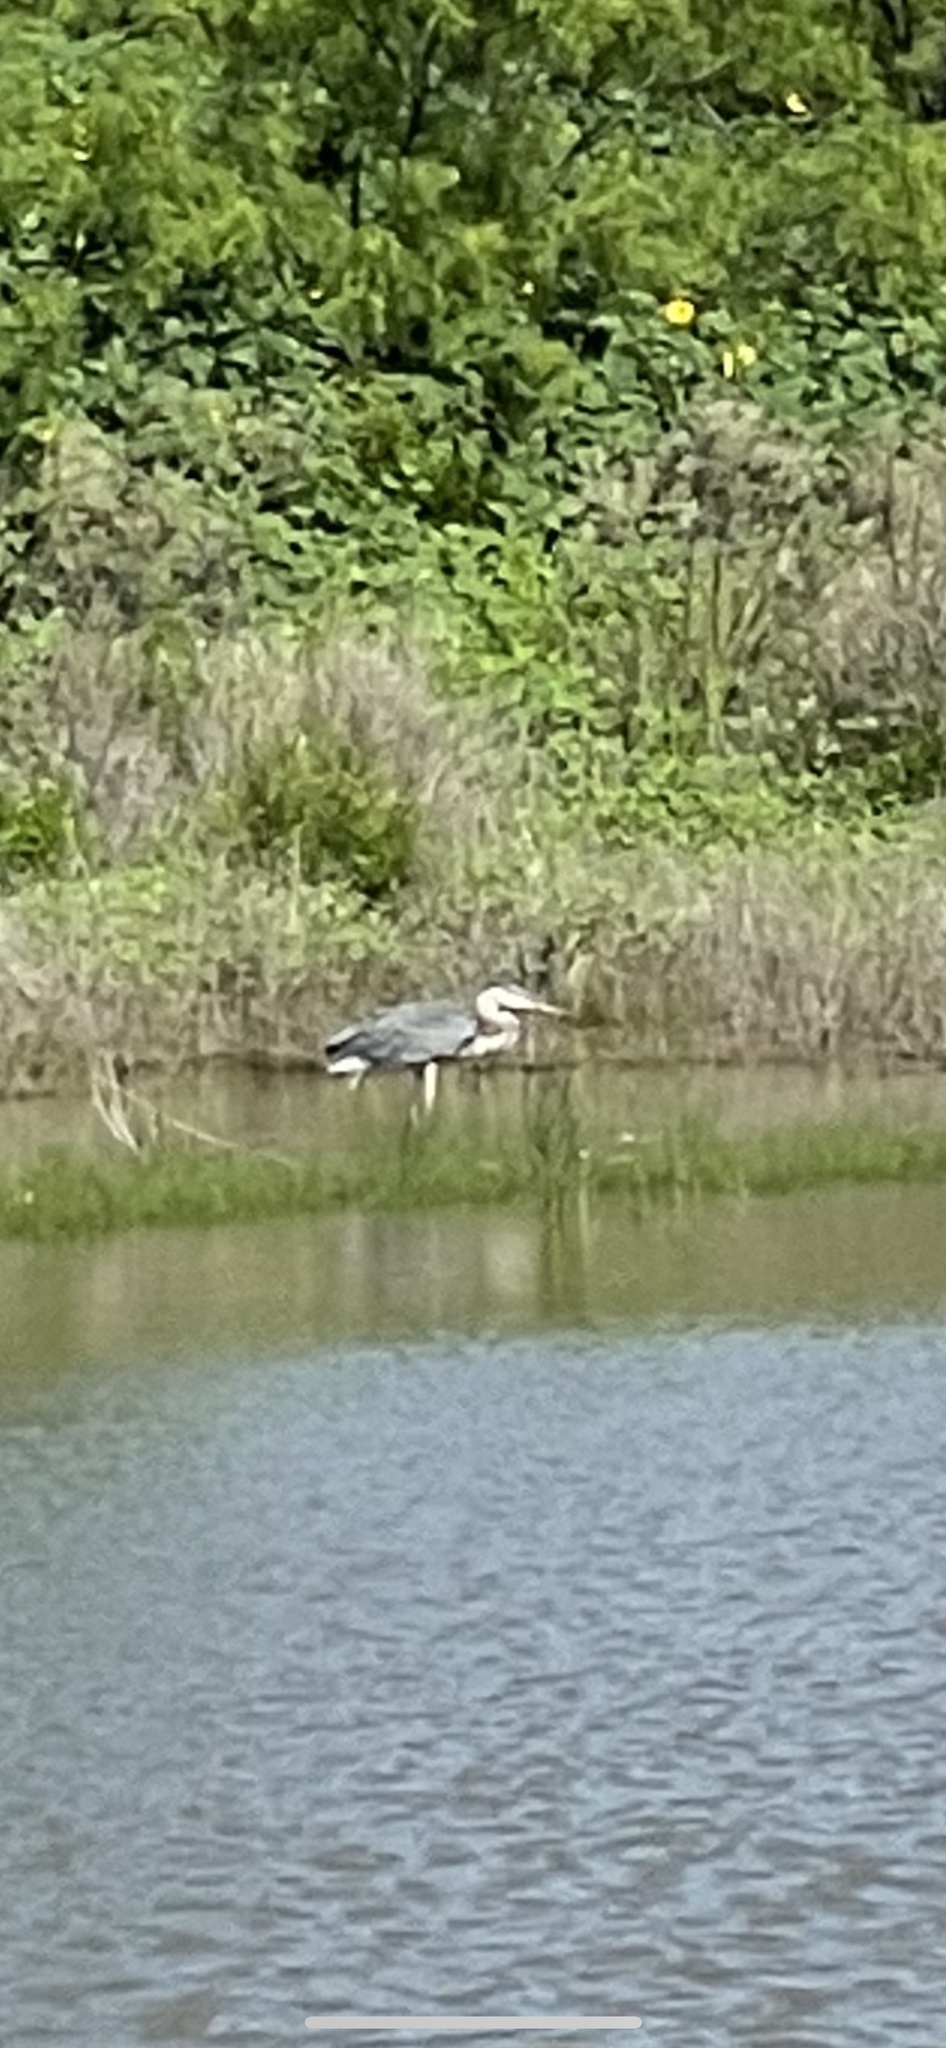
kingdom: Animalia
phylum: Chordata
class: Aves
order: Pelecaniformes
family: Ardeidae
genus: Ardea
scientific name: Ardea herodias
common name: Great blue heron
